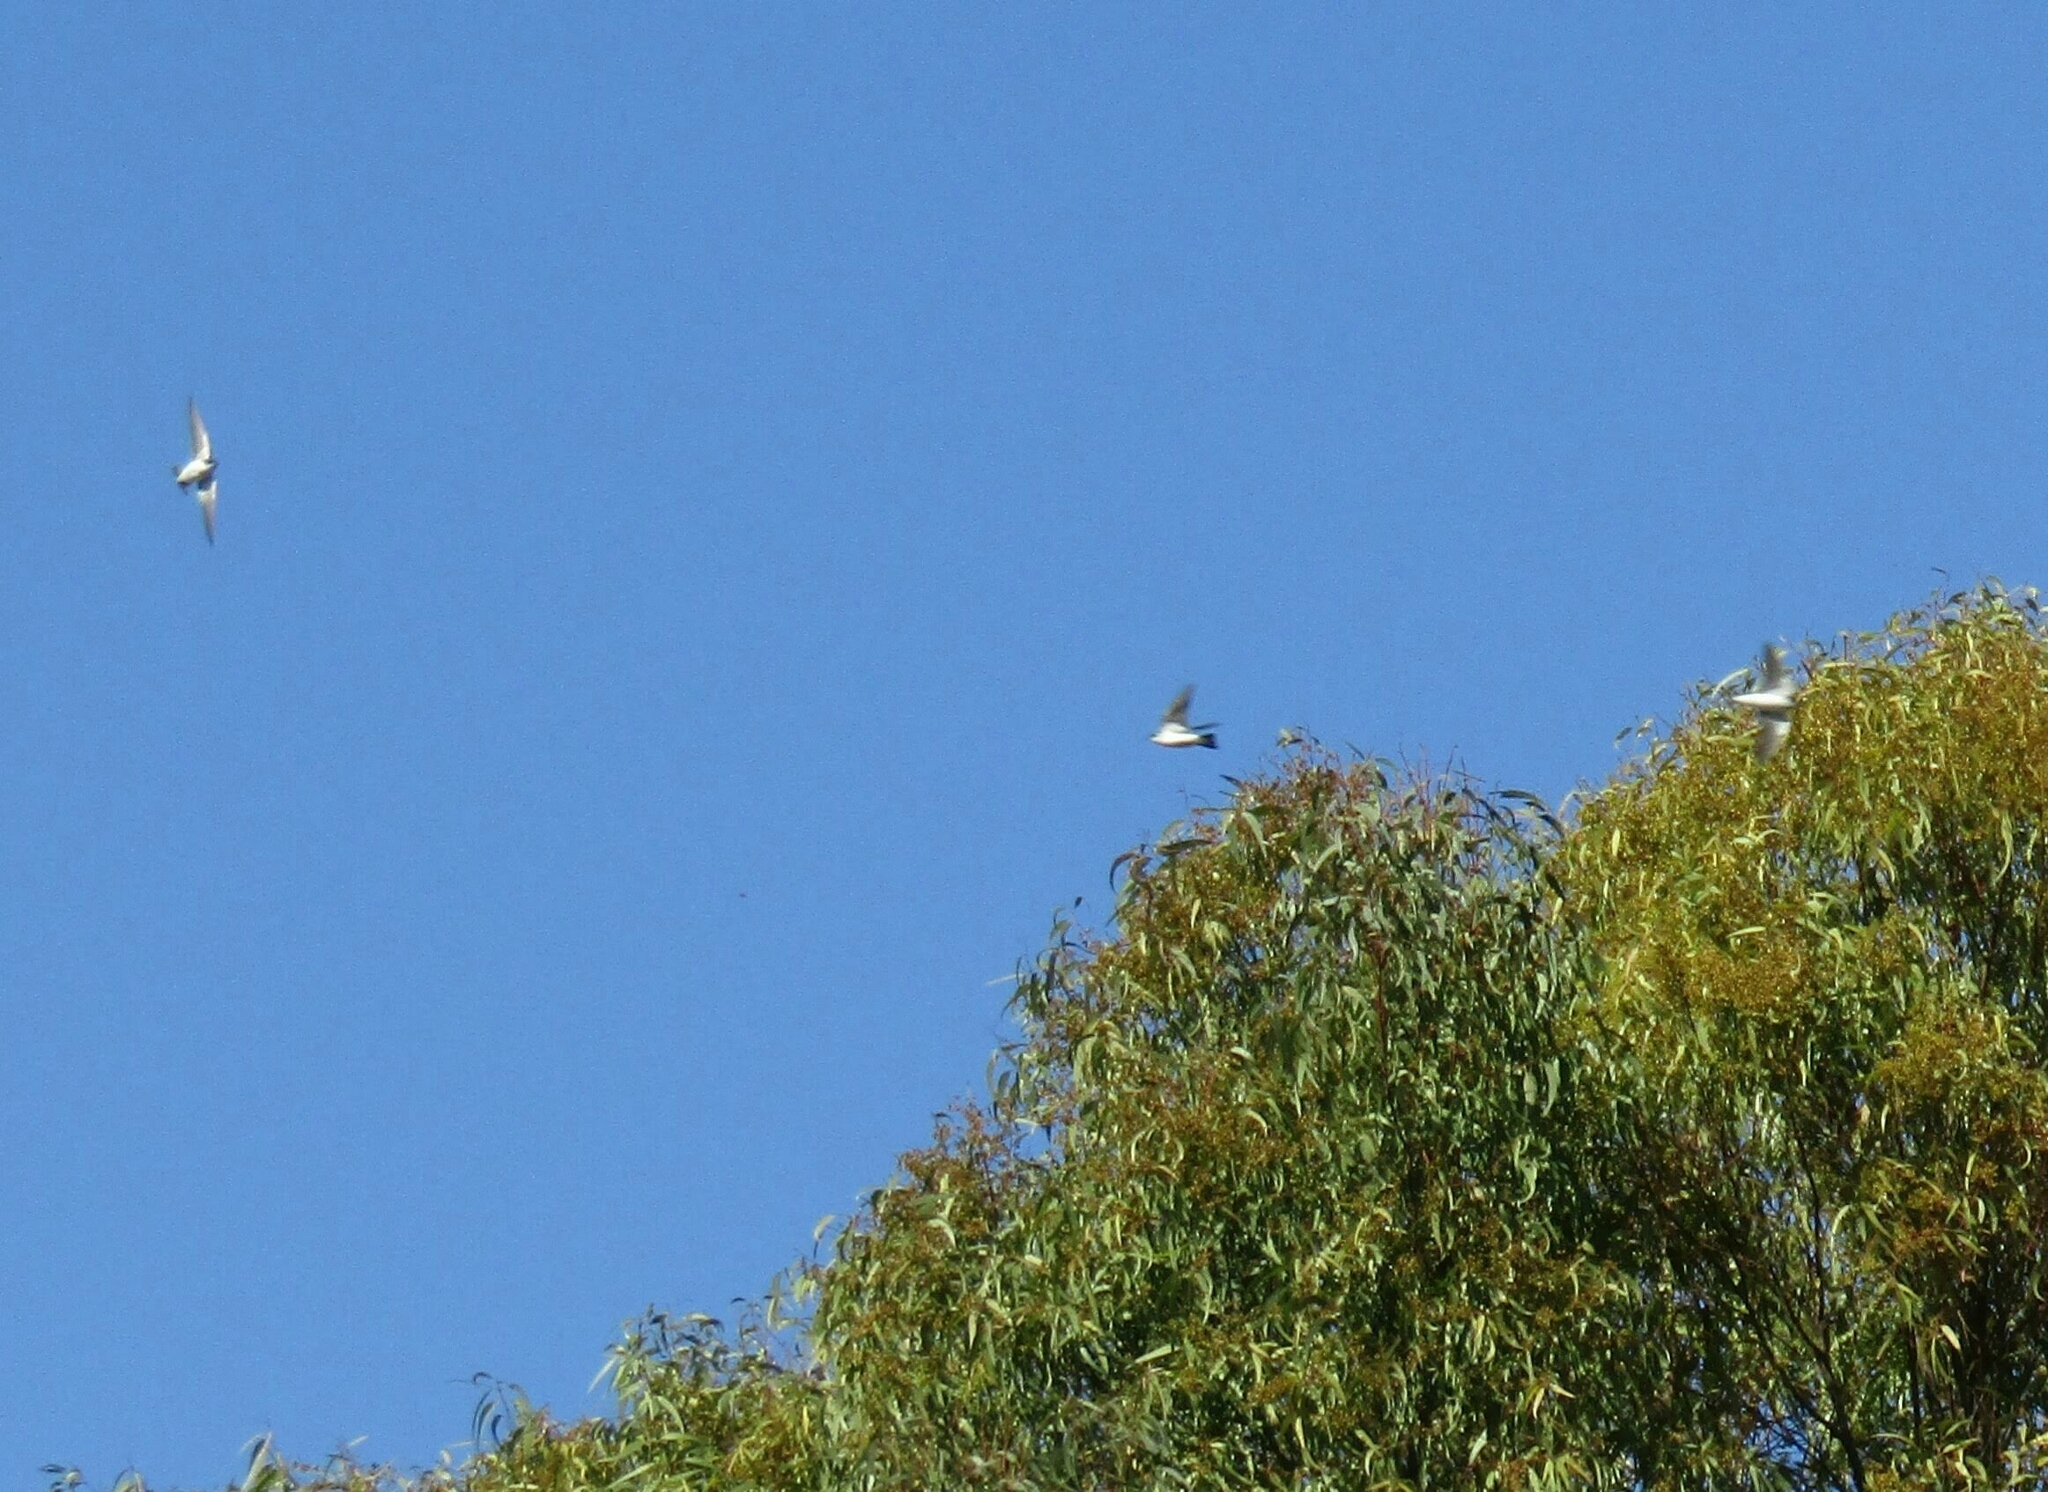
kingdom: Animalia
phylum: Chordata
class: Aves
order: Passeriformes
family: Hirundinidae
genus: Tachycineta
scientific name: Tachycineta leucorrhoa
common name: White-rumped swallow
